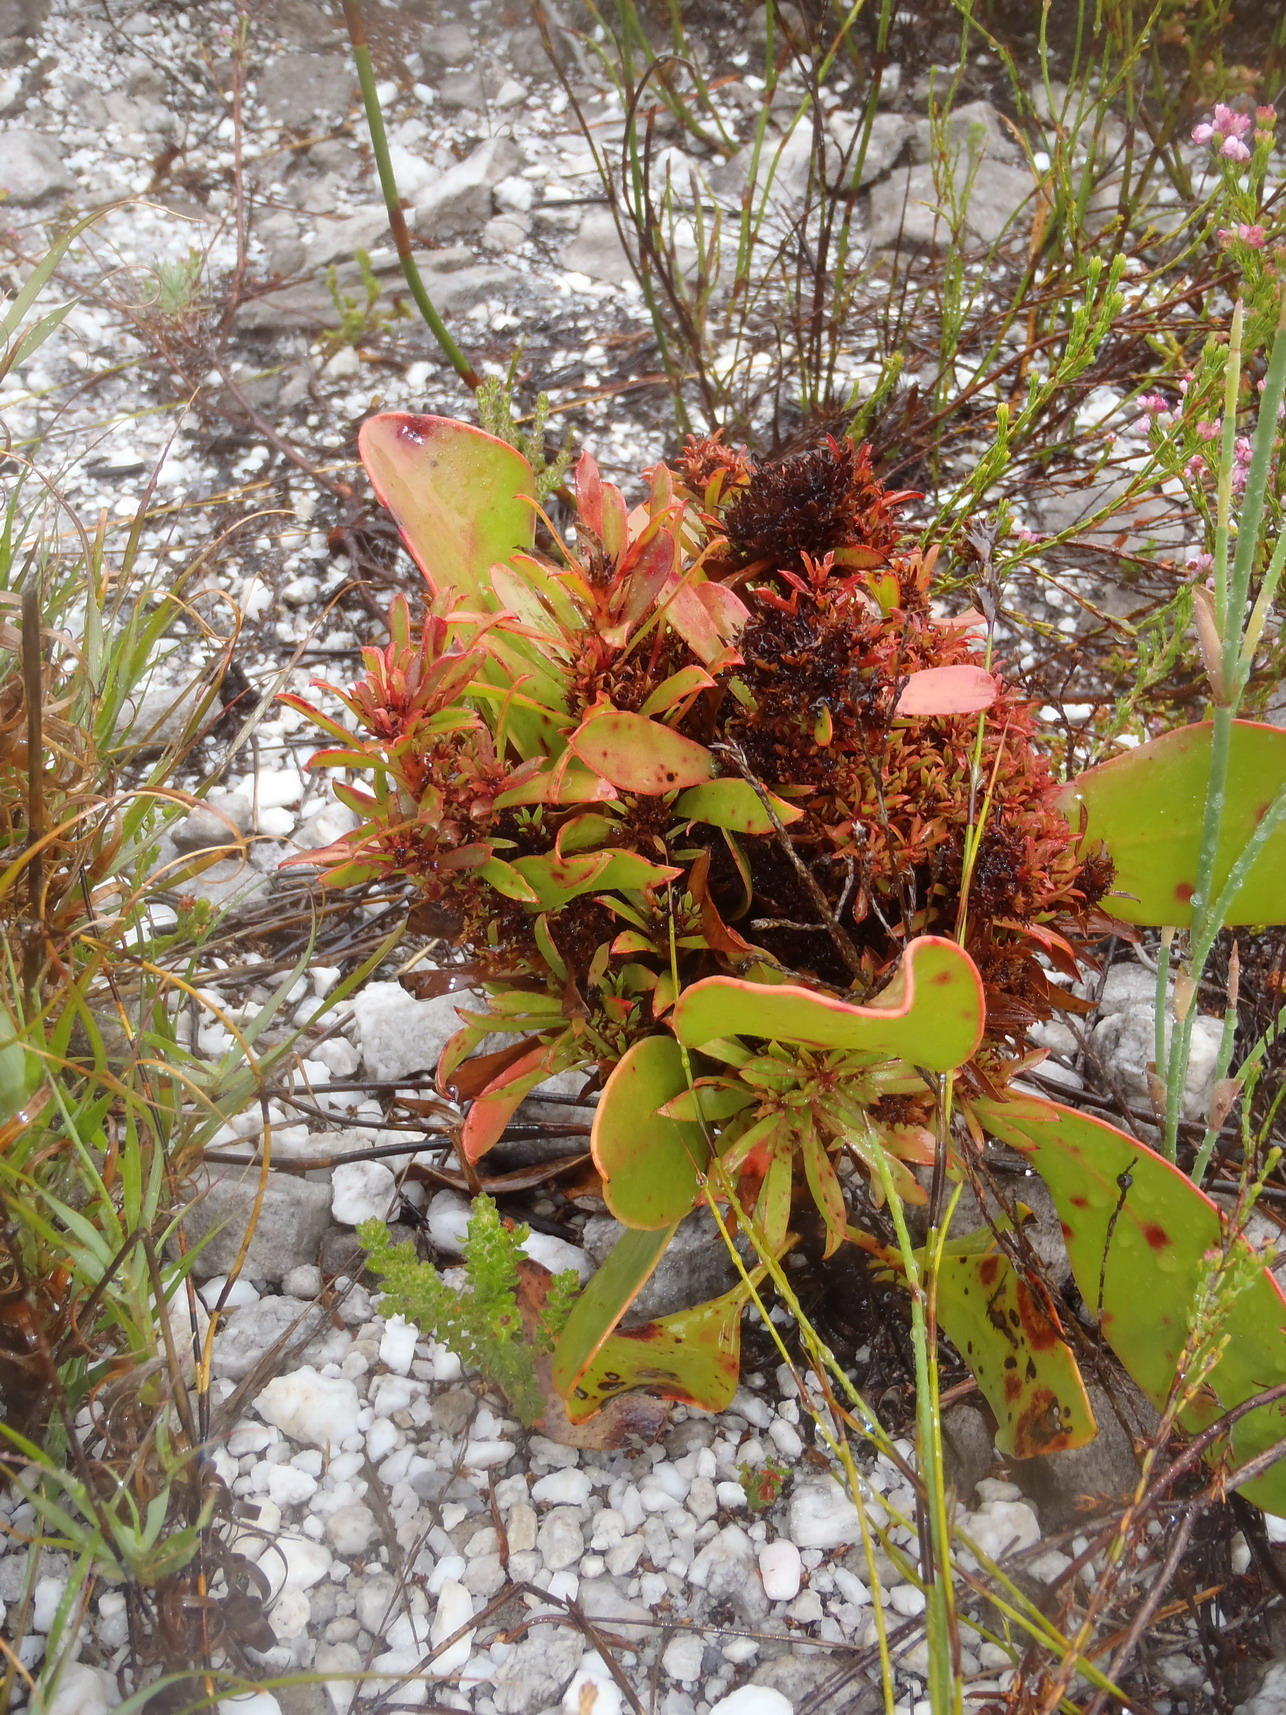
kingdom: Bacteria
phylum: Firmicutes
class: Bacilli
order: Acholeplasmatales
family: Acholeplasmataceae
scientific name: Acholeplasmataceae
